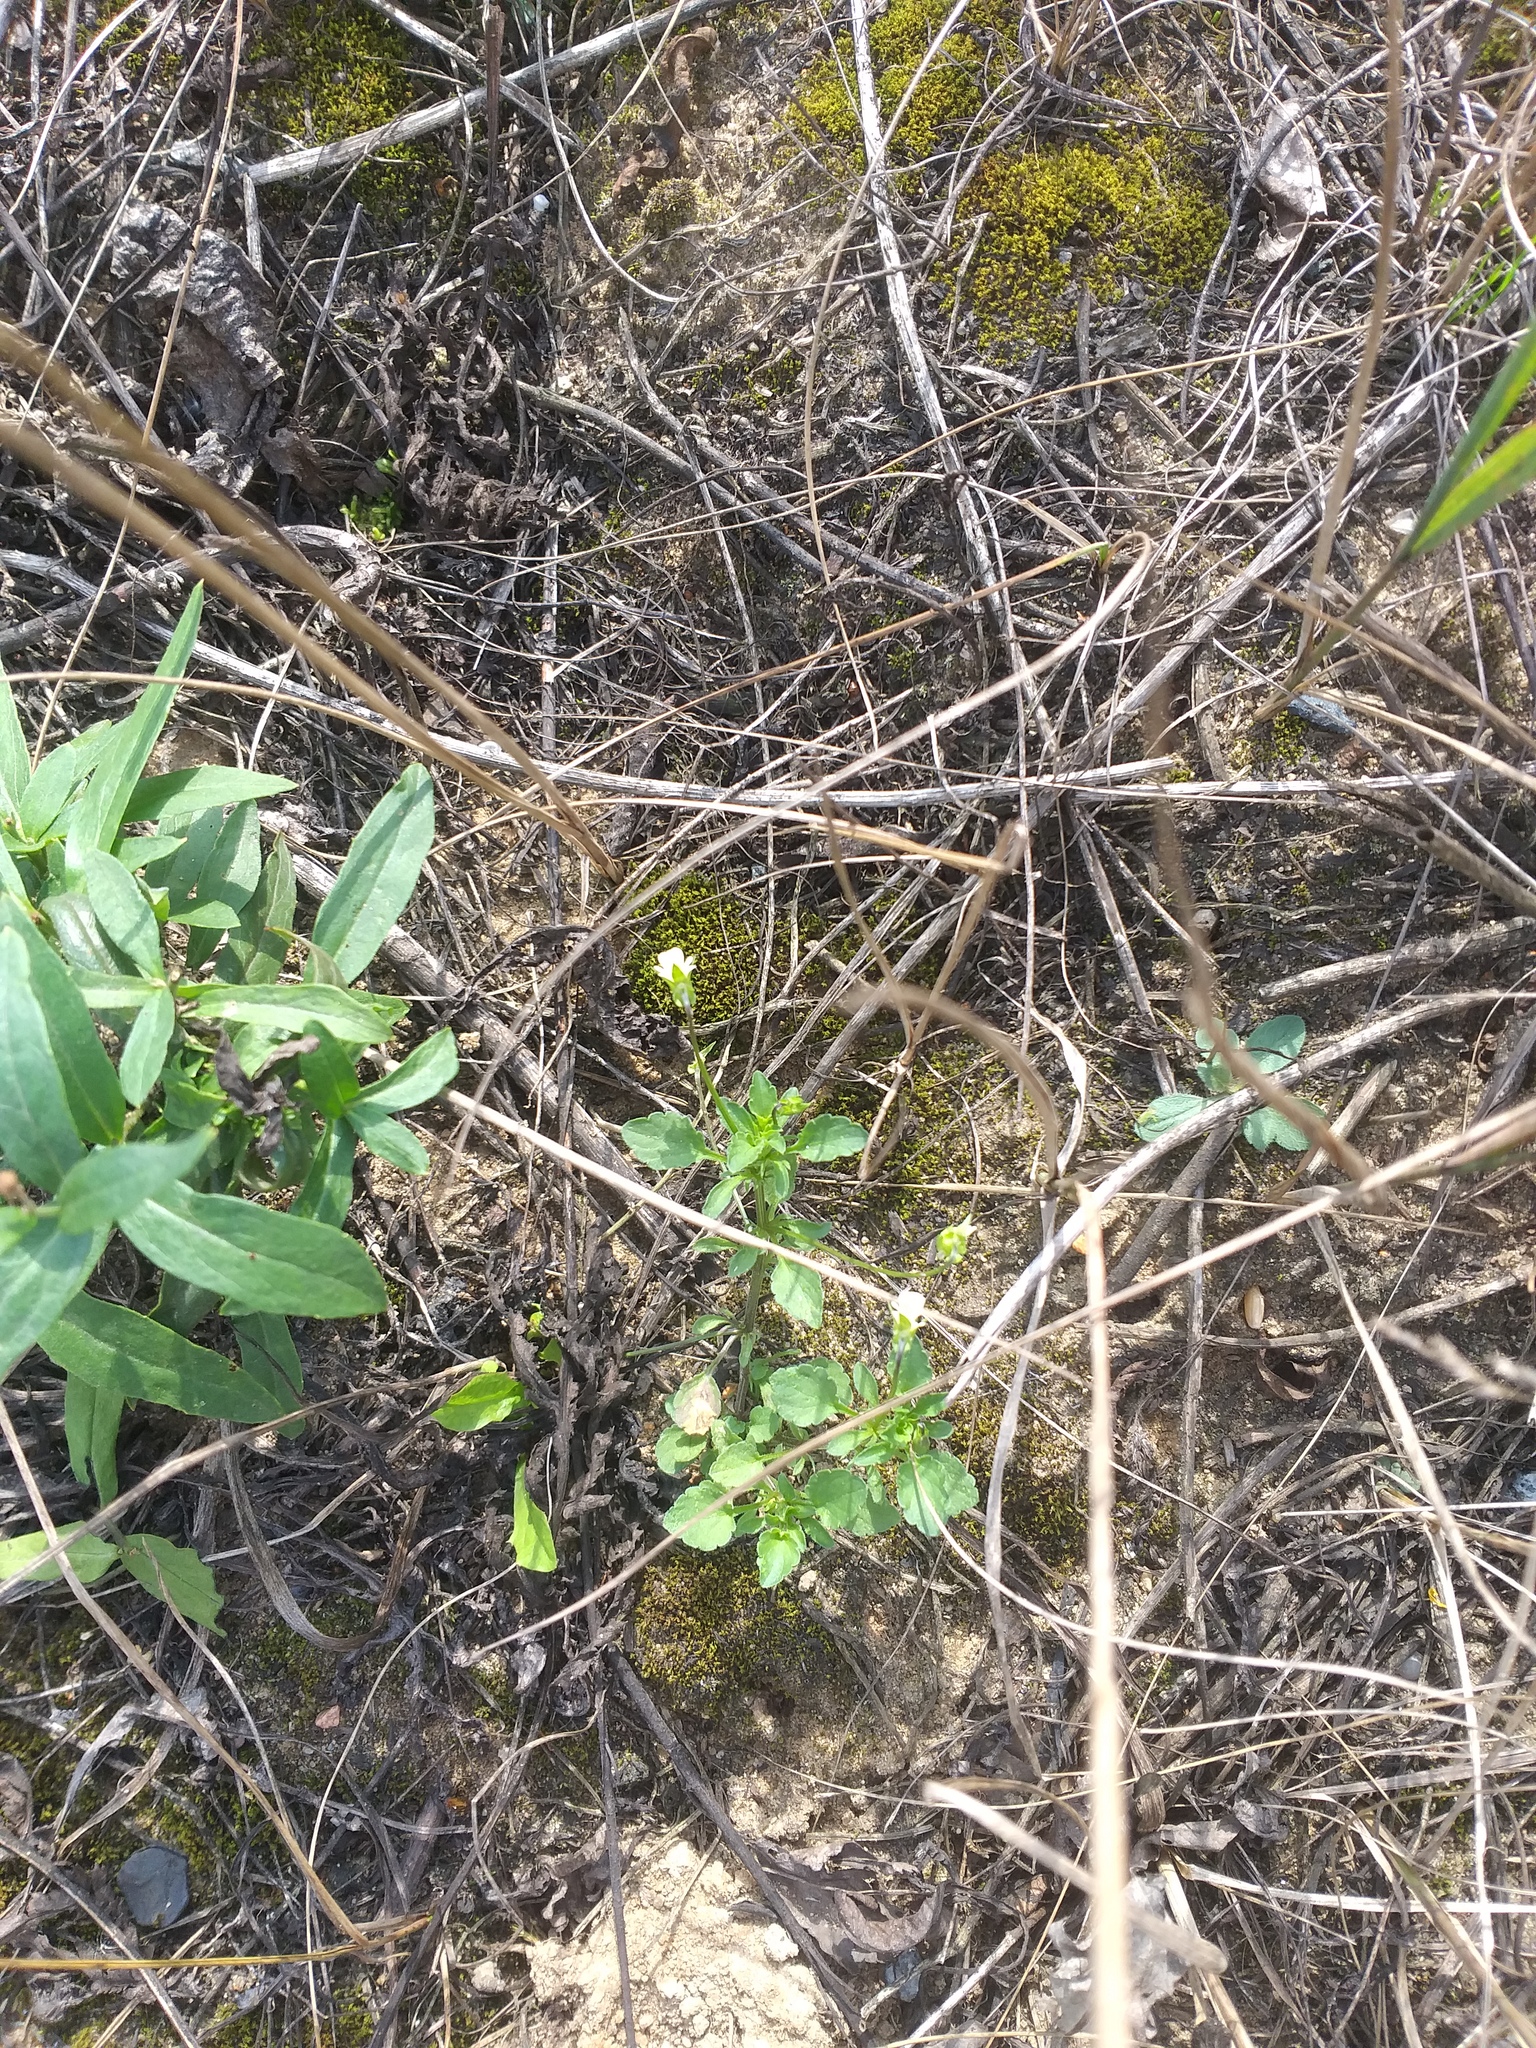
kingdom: Plantae
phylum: Tracheophyta
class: Magnoliopsida
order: Malpighiales
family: Violaceae
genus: Viola
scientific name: Viola arvensis
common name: Field pansy
